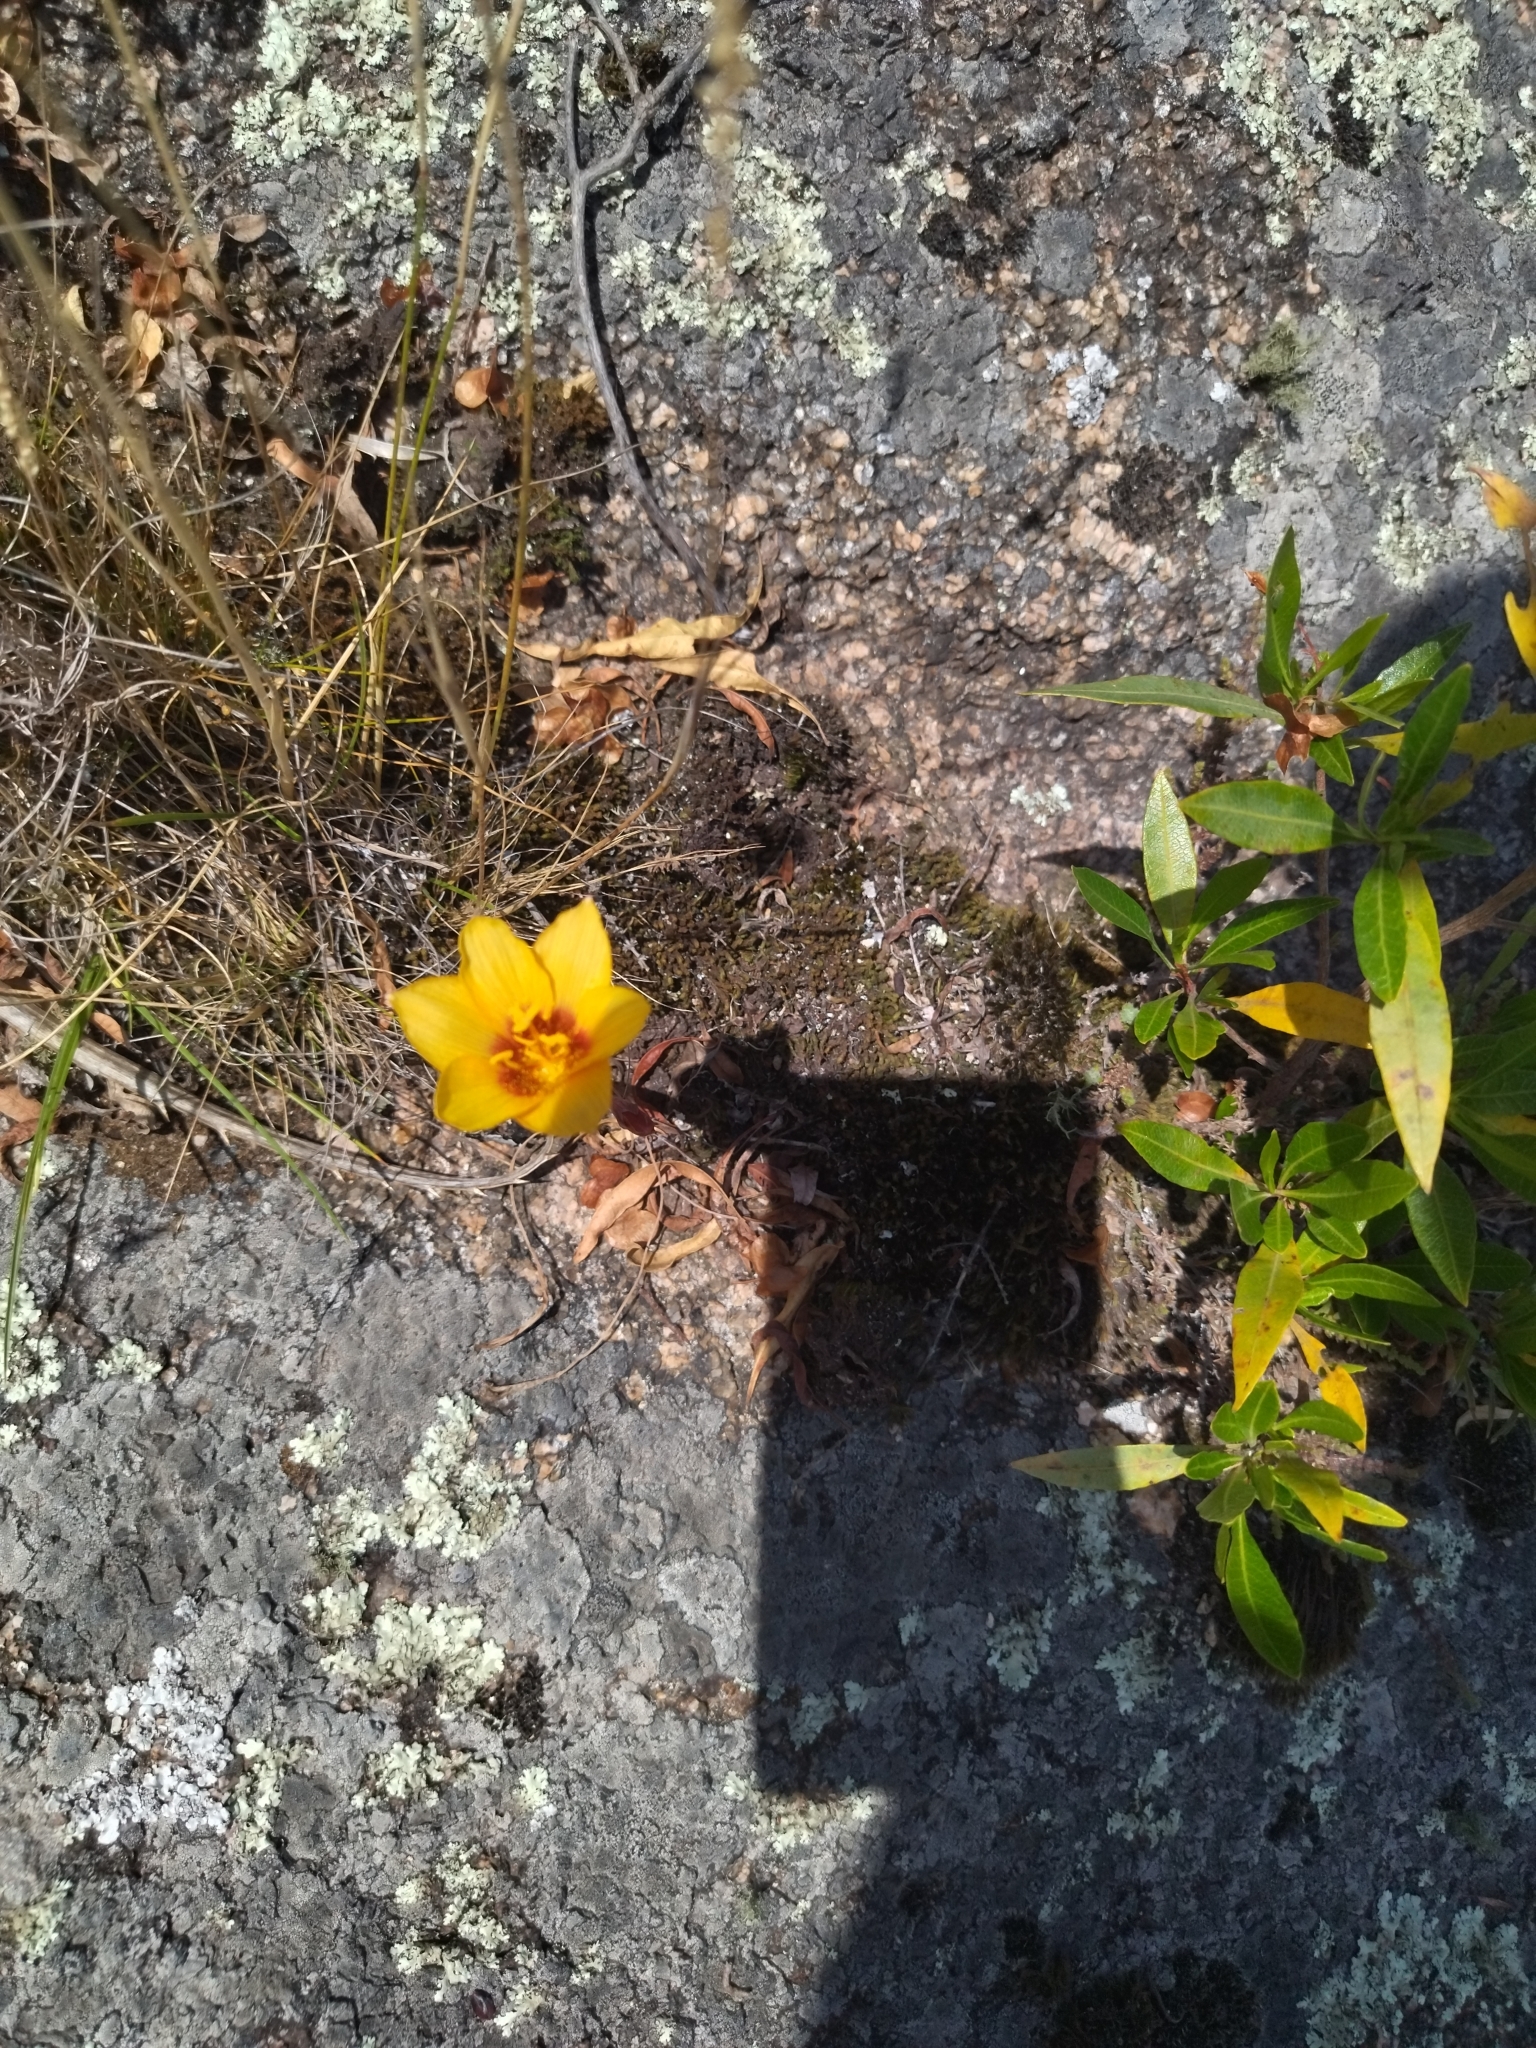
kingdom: Plantae
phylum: Tracheophyta
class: Liliopsida
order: Asparagales
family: Amaryllidaceae
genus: Zephyranthes
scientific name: Zephyranthes tubispatha
